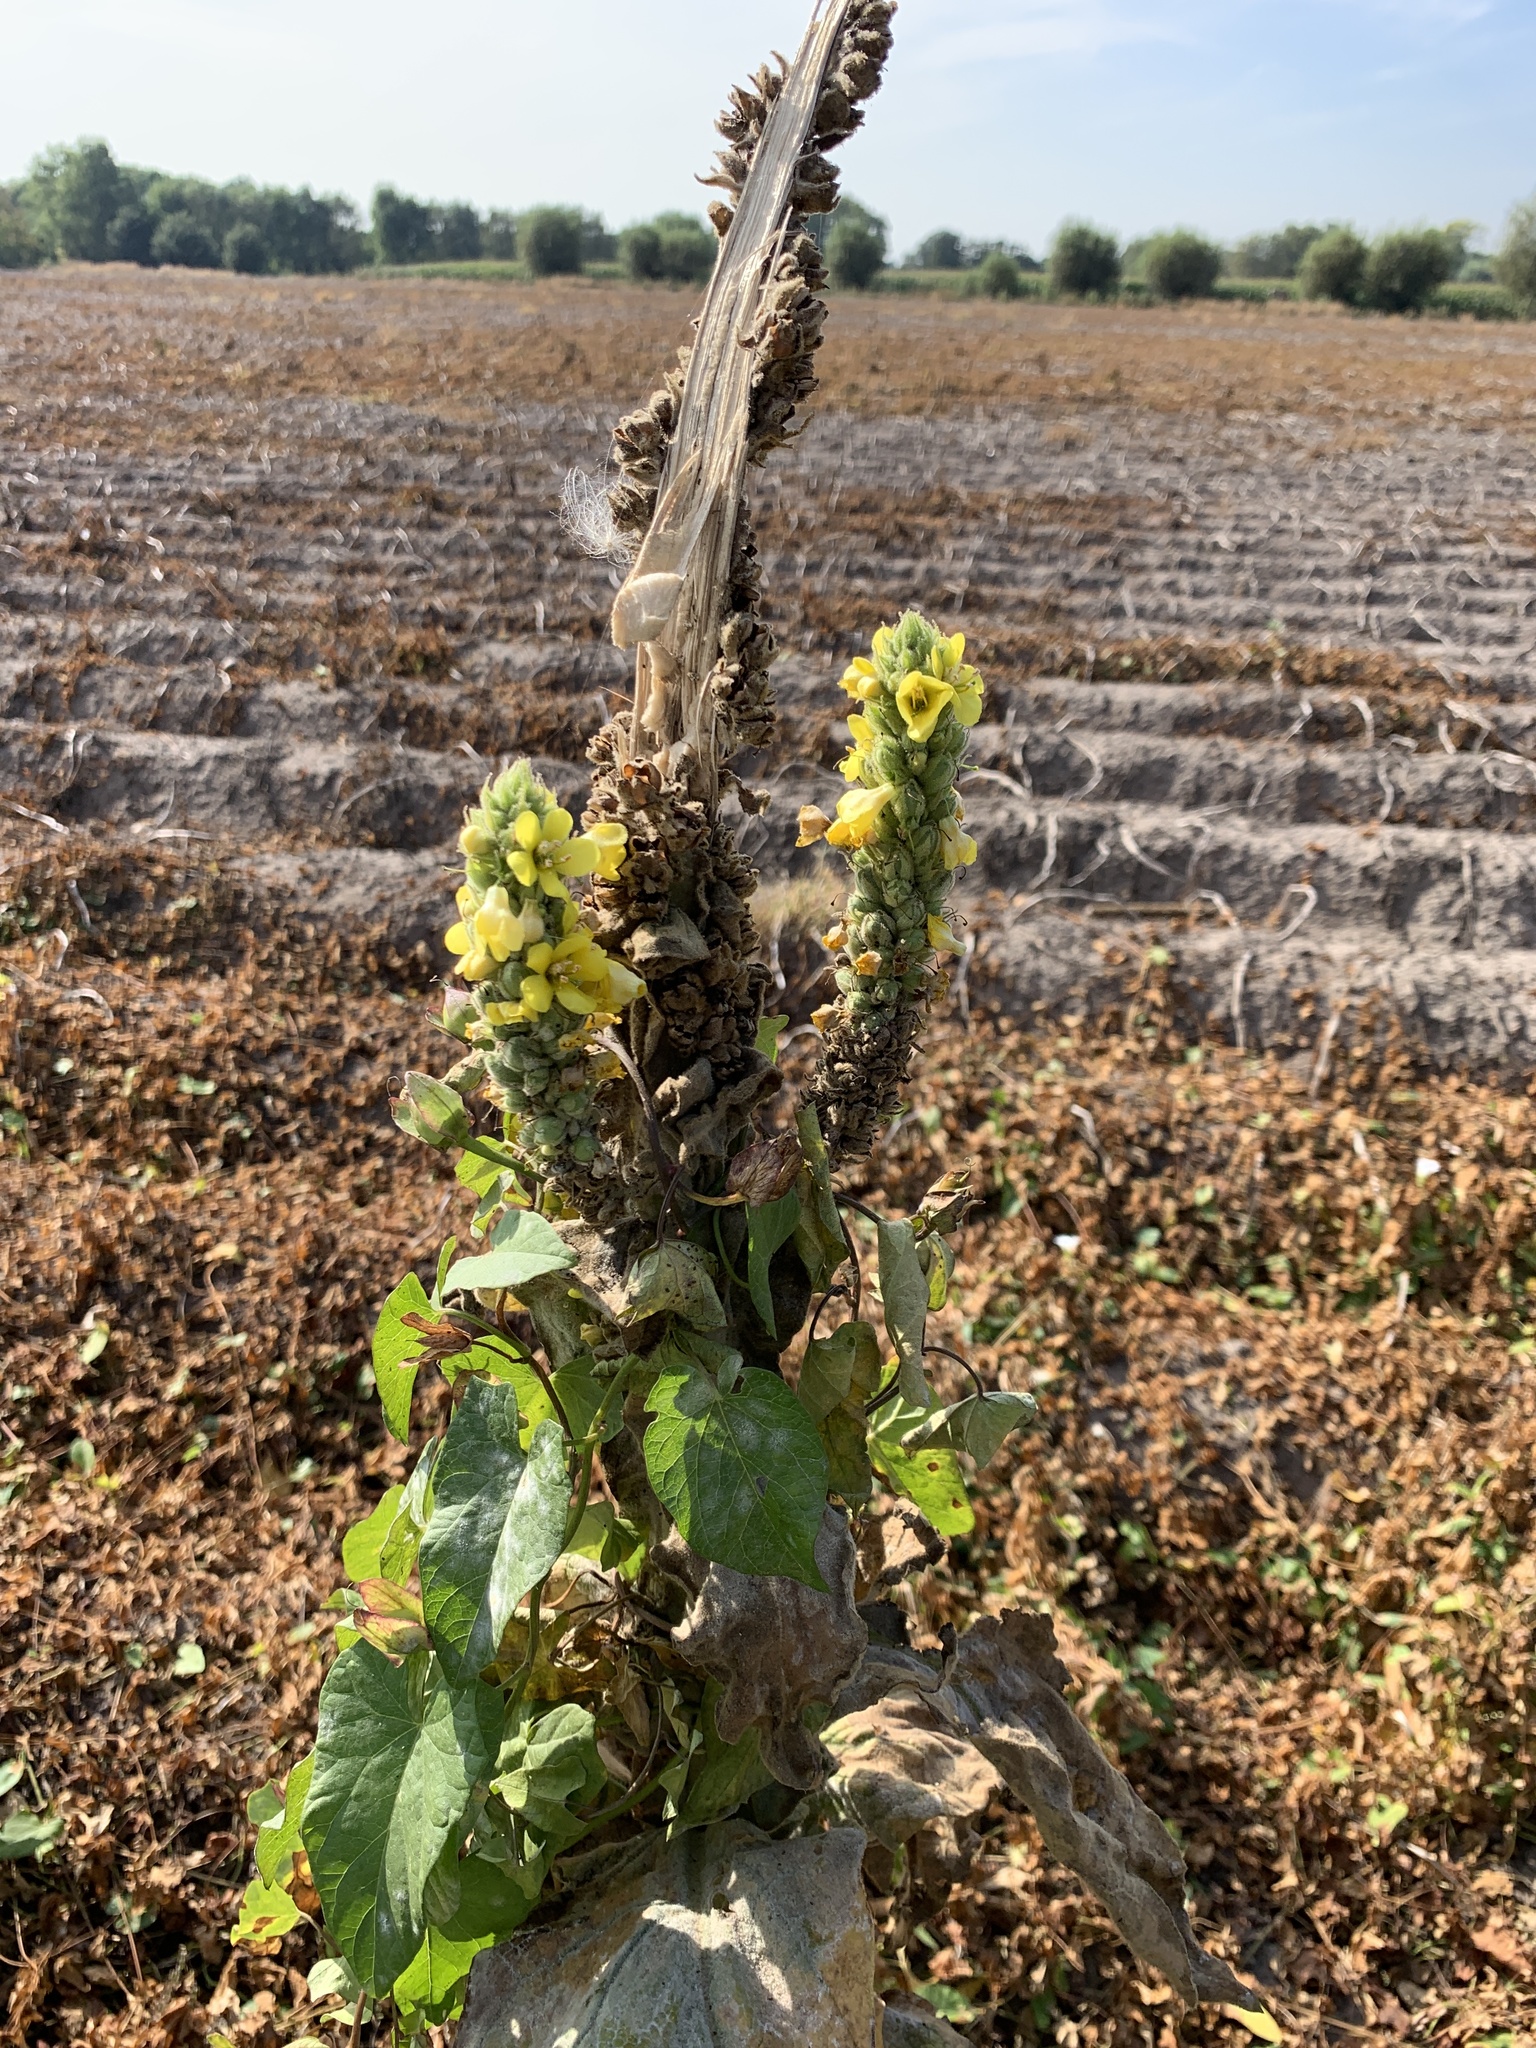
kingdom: Plantae
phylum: Tracheophyta
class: Magnoliopsida
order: Lamiales
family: Scrophulariaceae
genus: Verbascum
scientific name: Verbascum thapsus
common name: Common mullein
